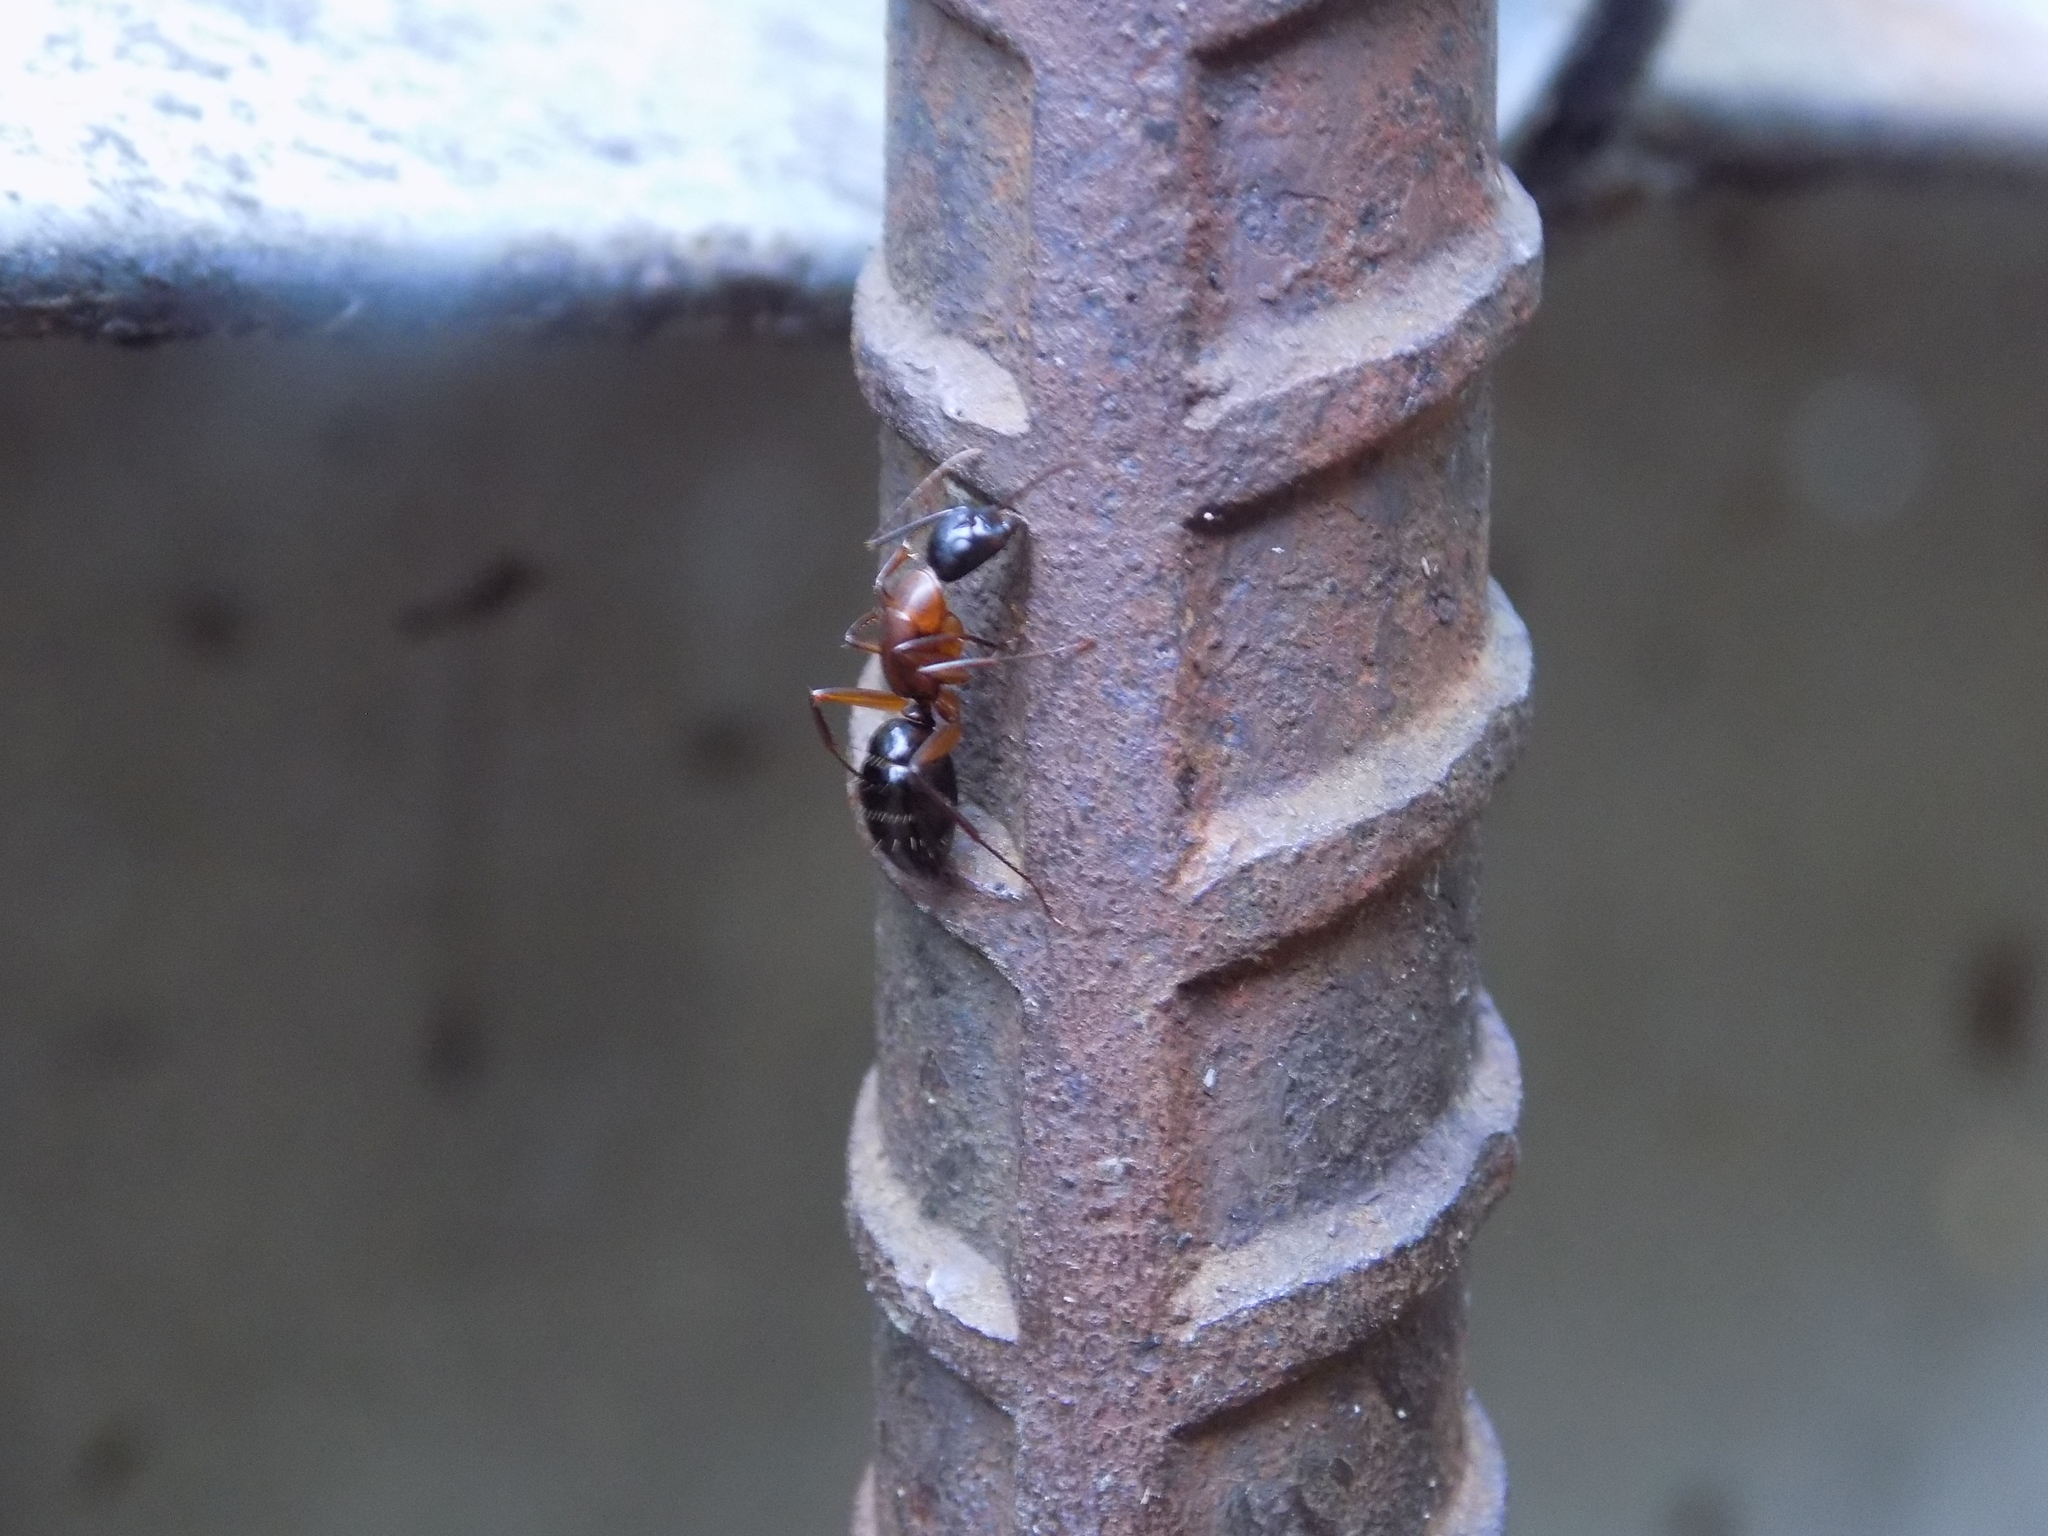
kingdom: Animalia
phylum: Arthropoda
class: Insecta
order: Hymenoptera
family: Formicidae
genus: Camponotus
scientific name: Camponotus texanus
